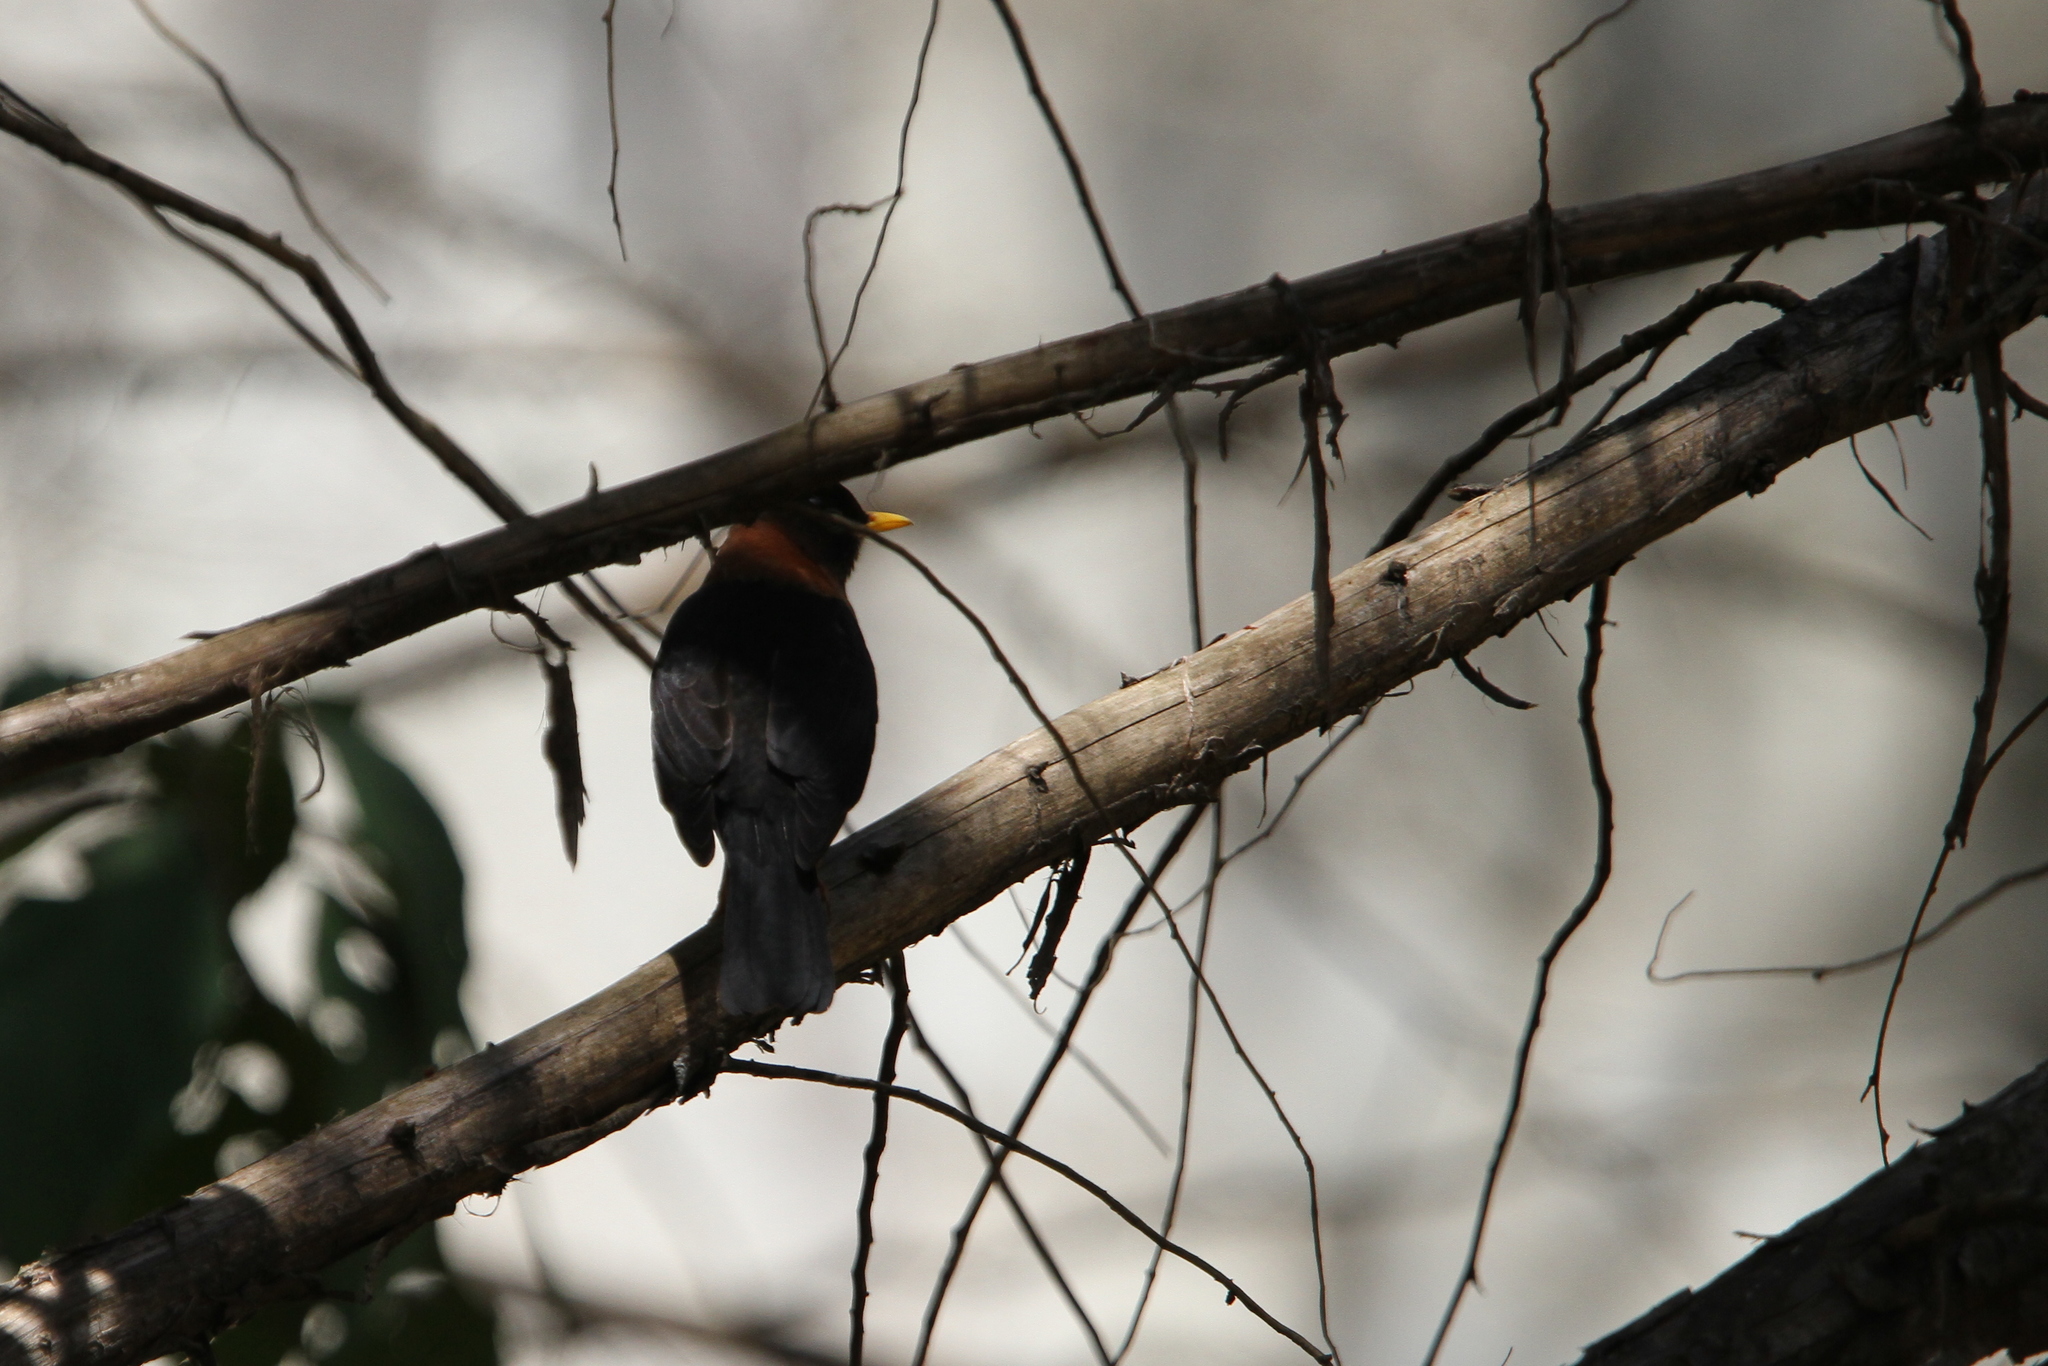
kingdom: Animalia
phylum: Chordata
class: Aves
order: Passeriformes
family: Turdidae
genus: Turdus
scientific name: Turdus rufitorques
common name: Rufous-collared thrush
